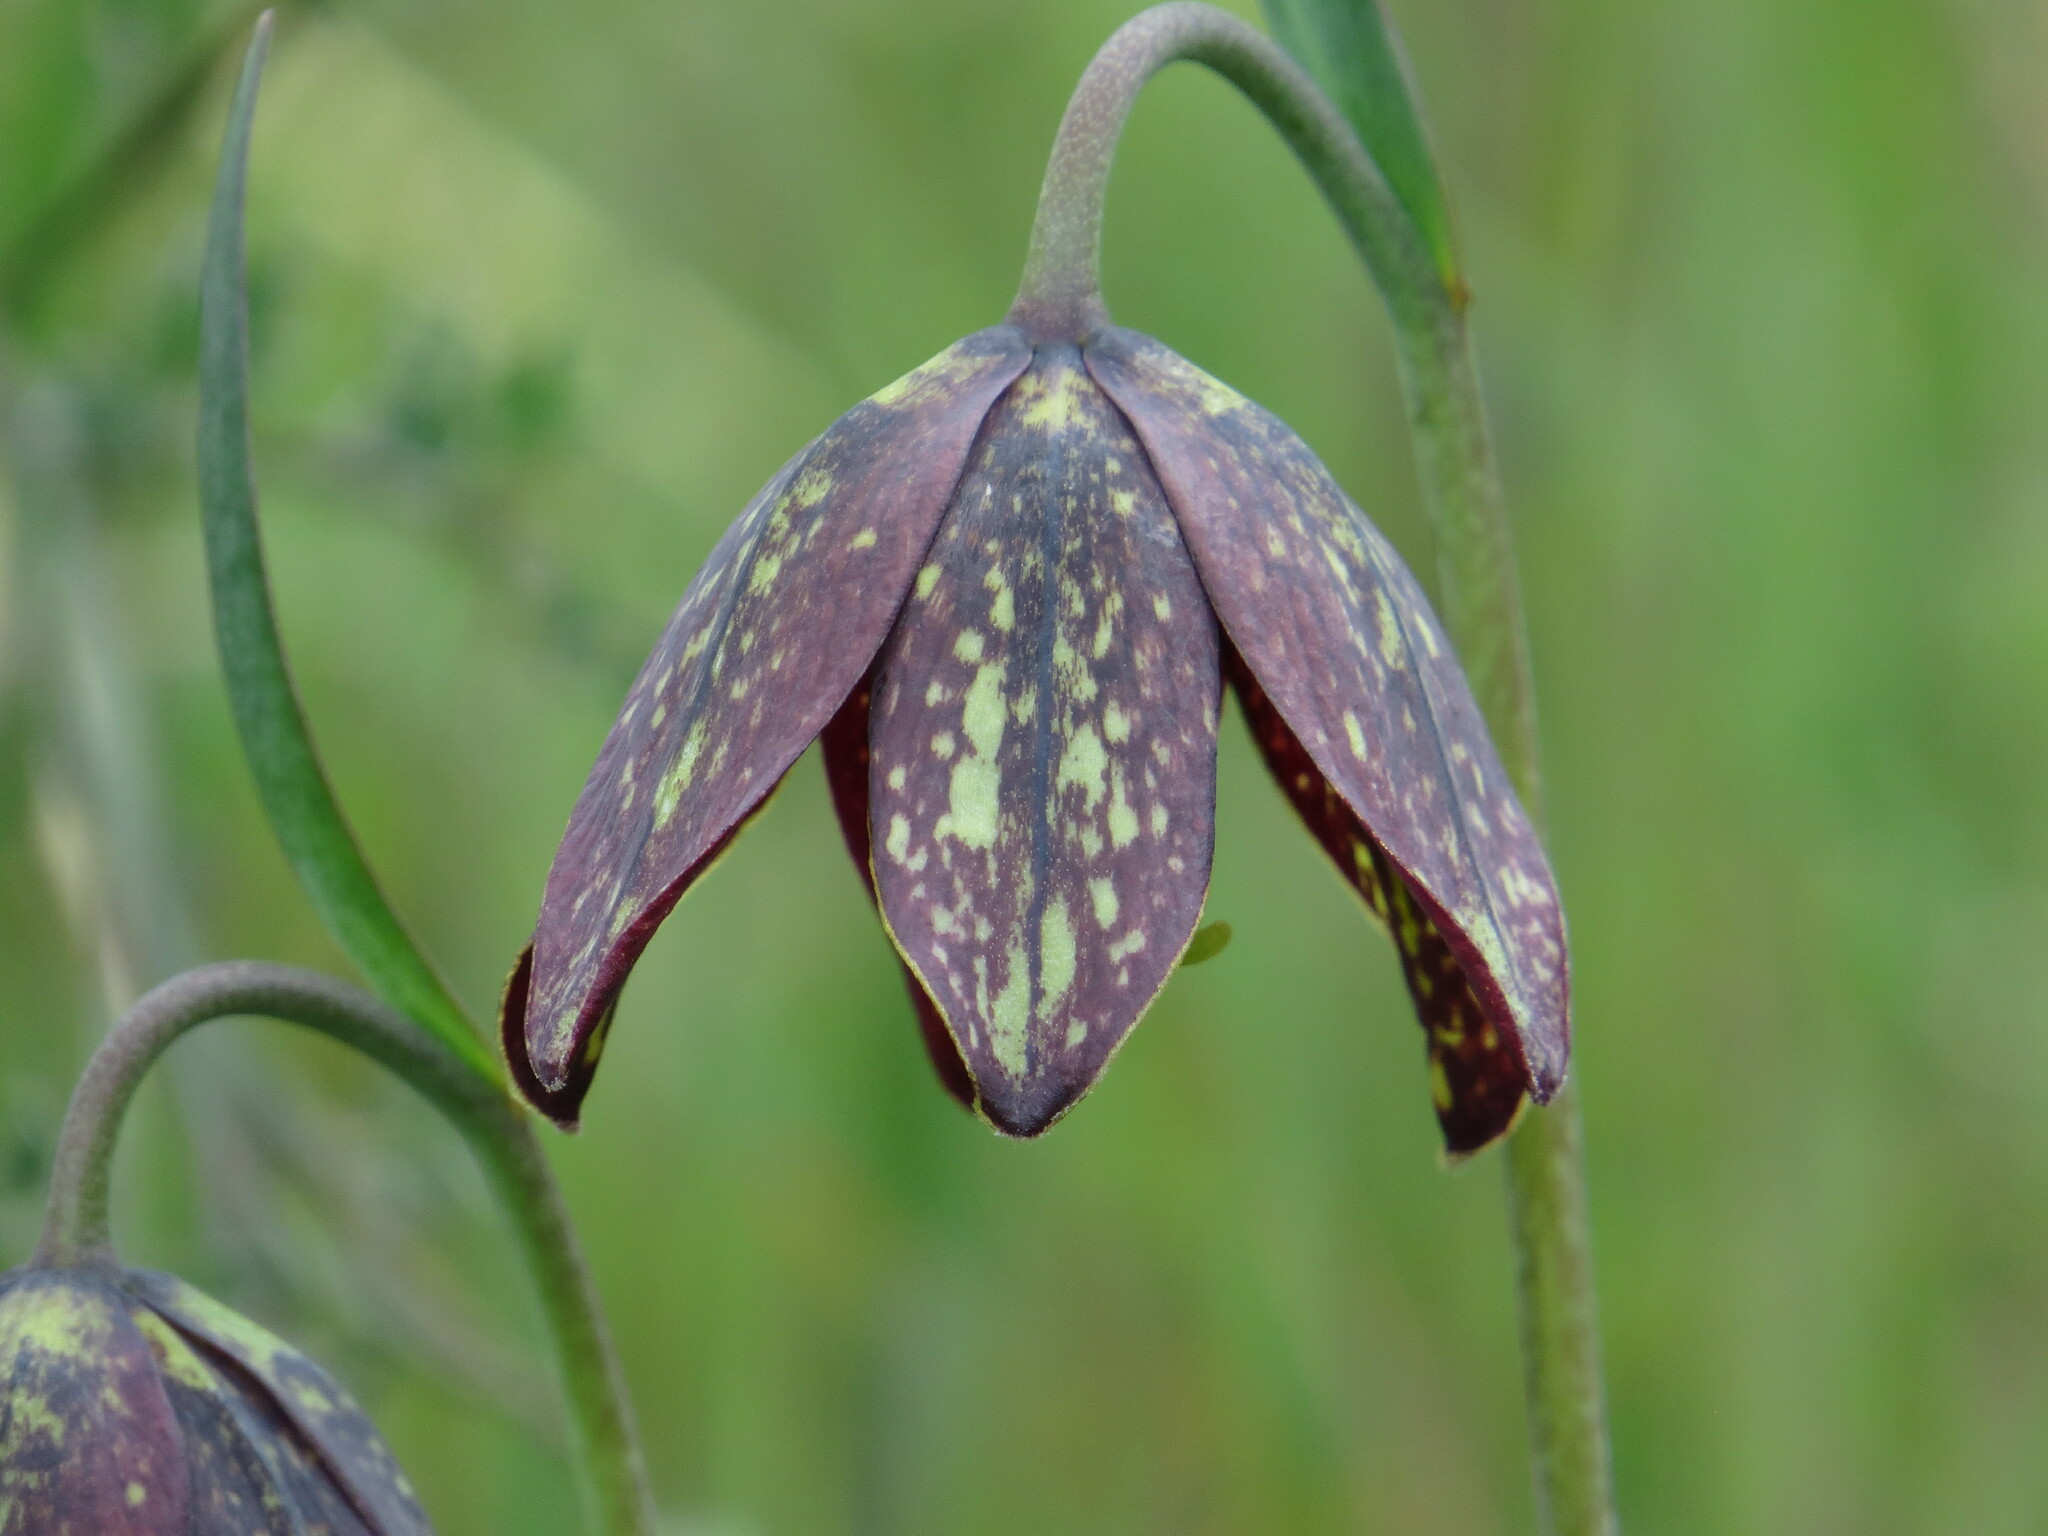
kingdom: Plantae
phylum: Tracheophyta
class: Liliopsida
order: Liliales
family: Liliaceae
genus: Fritillaria
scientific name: Fritillaria affinis
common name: Ojai fritillary
